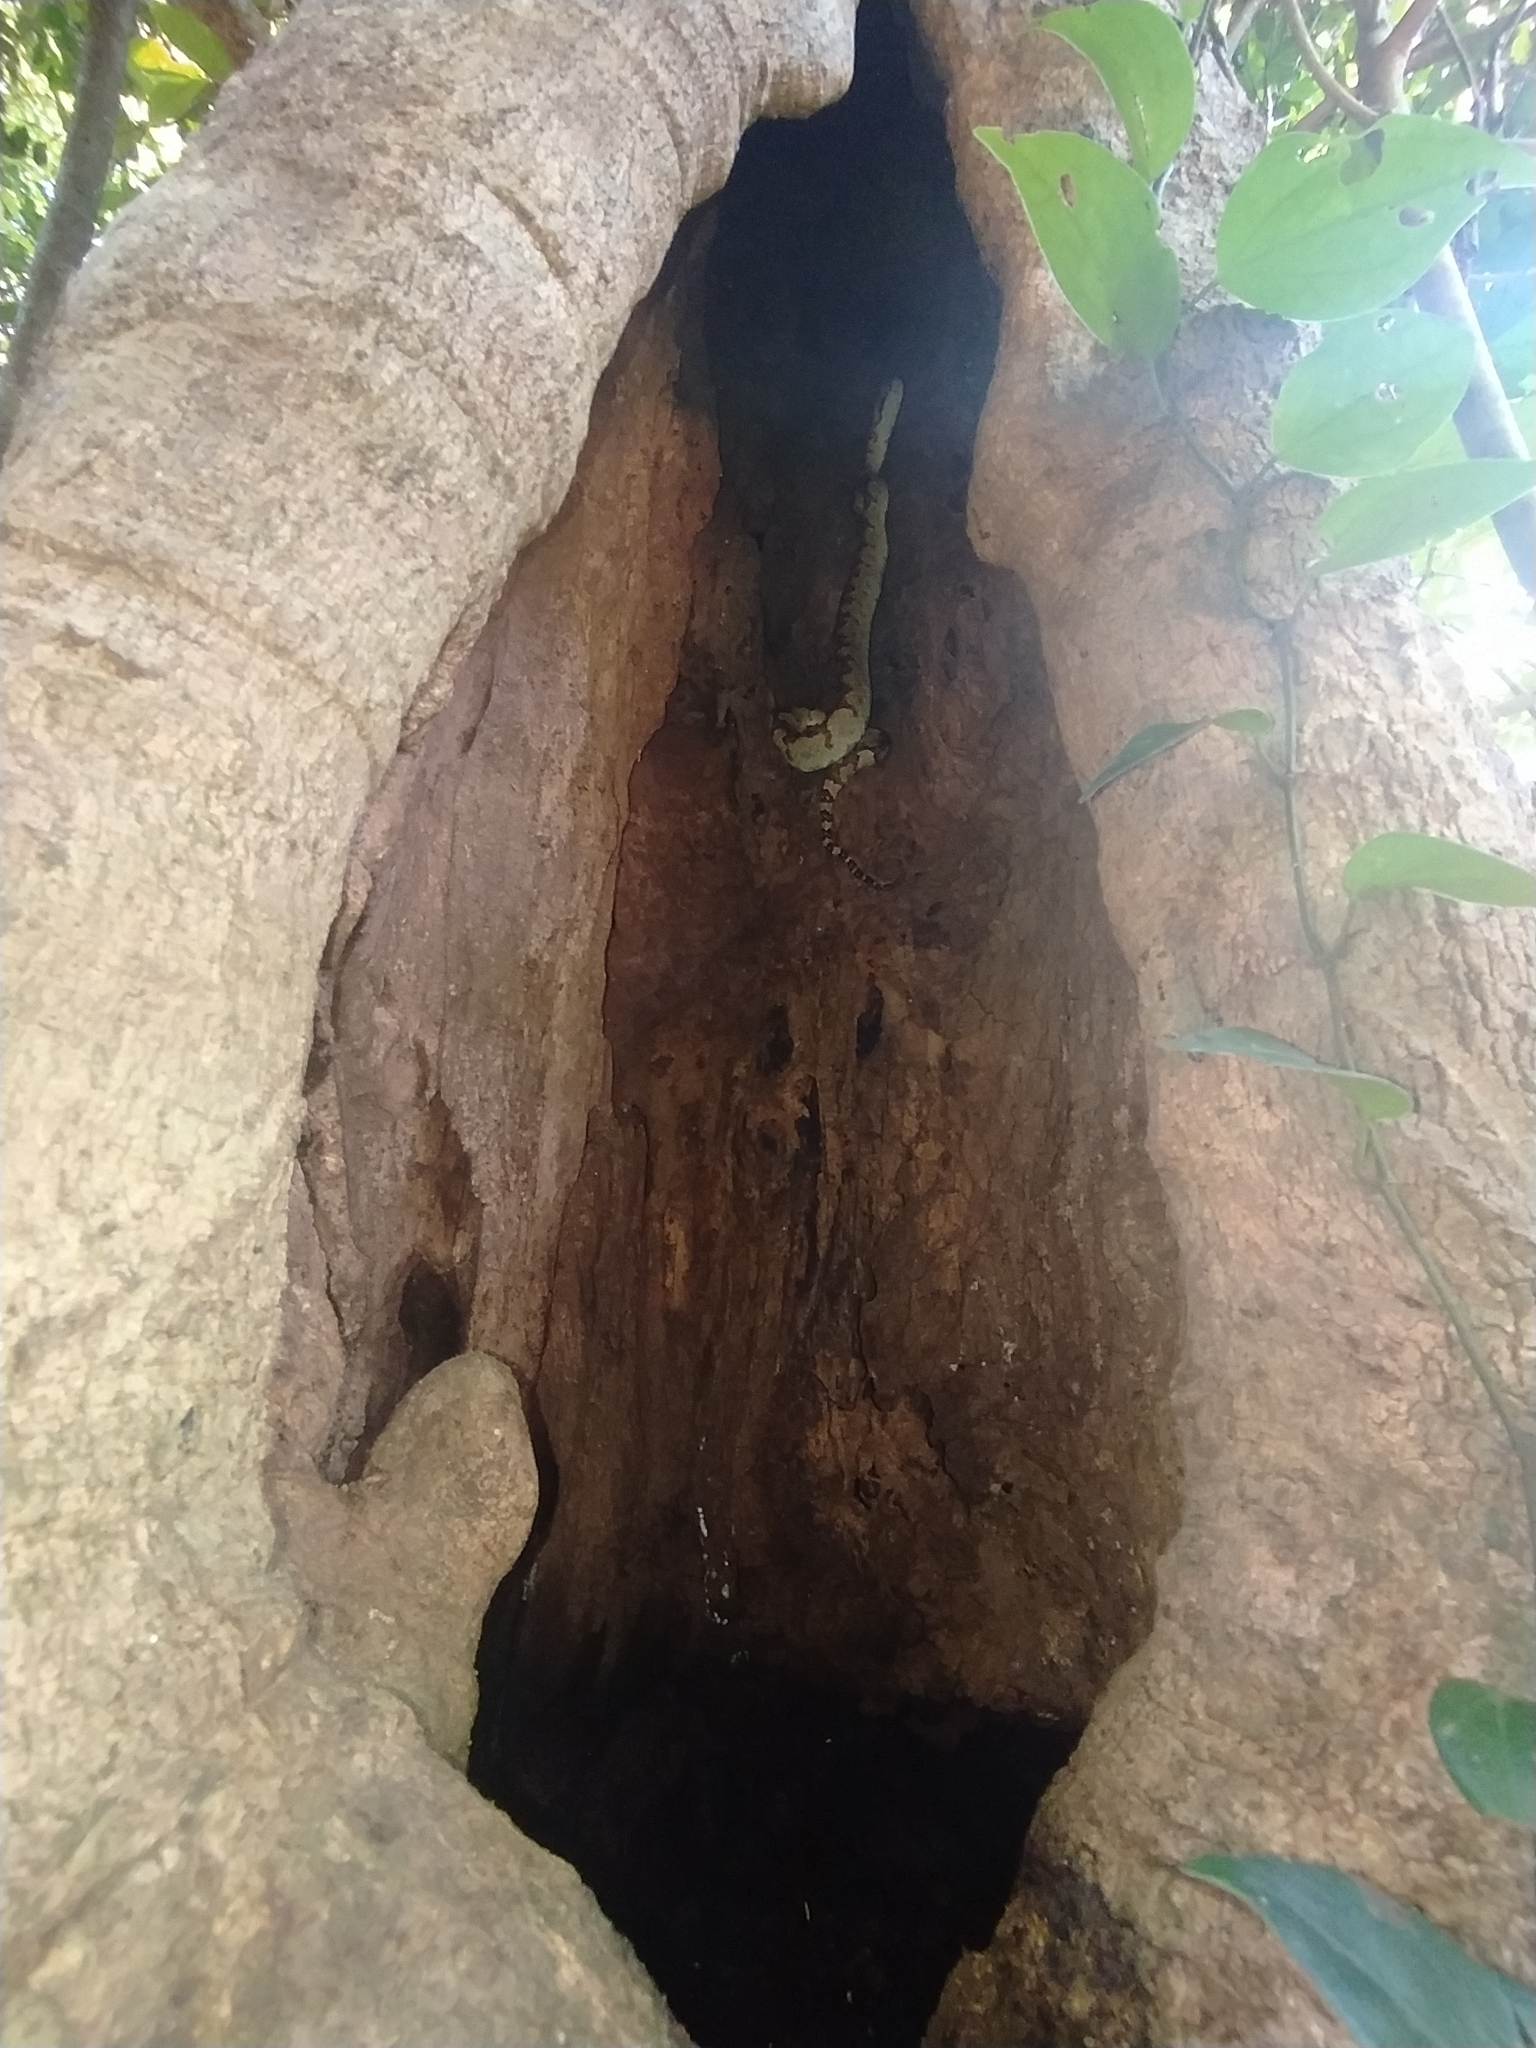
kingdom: Animalia
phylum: Chordata
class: Squamata
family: Viperidae
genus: Craspedocephalus
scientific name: Craspedocephalus malabaricus
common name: Malabarian pit viper
